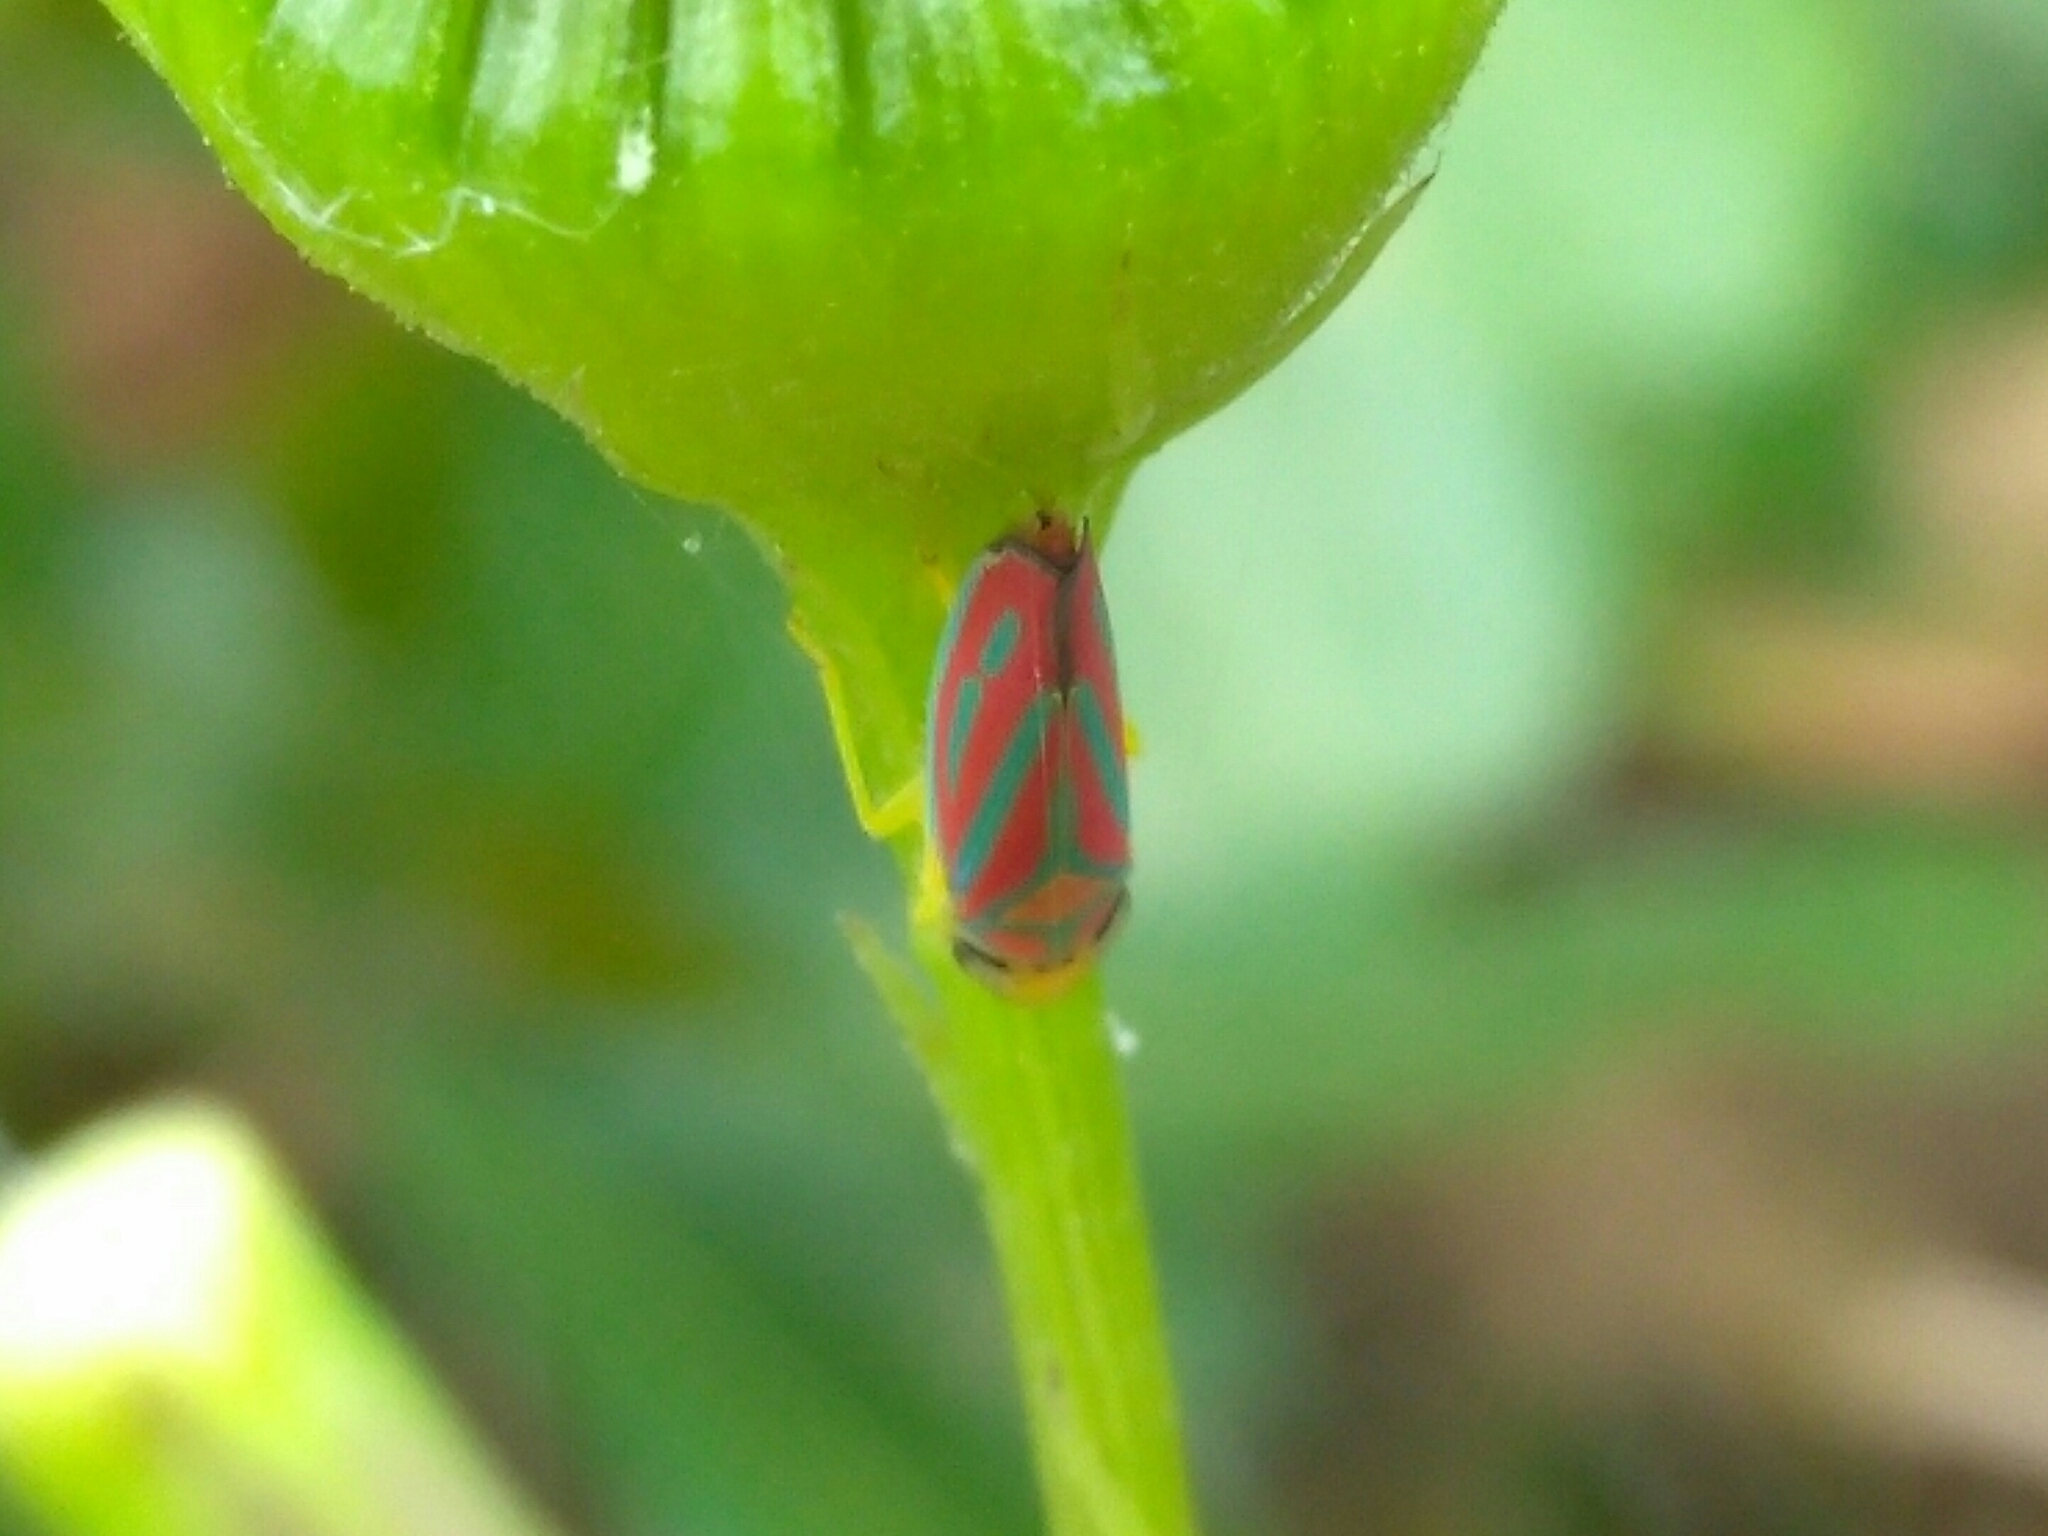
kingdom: Animalia
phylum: Arthropoda
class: Insecta
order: Hemiptera
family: Cicadellidae
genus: Graphocephala
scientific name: Graphocephala coccinea
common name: Candy-striped leafhopper
